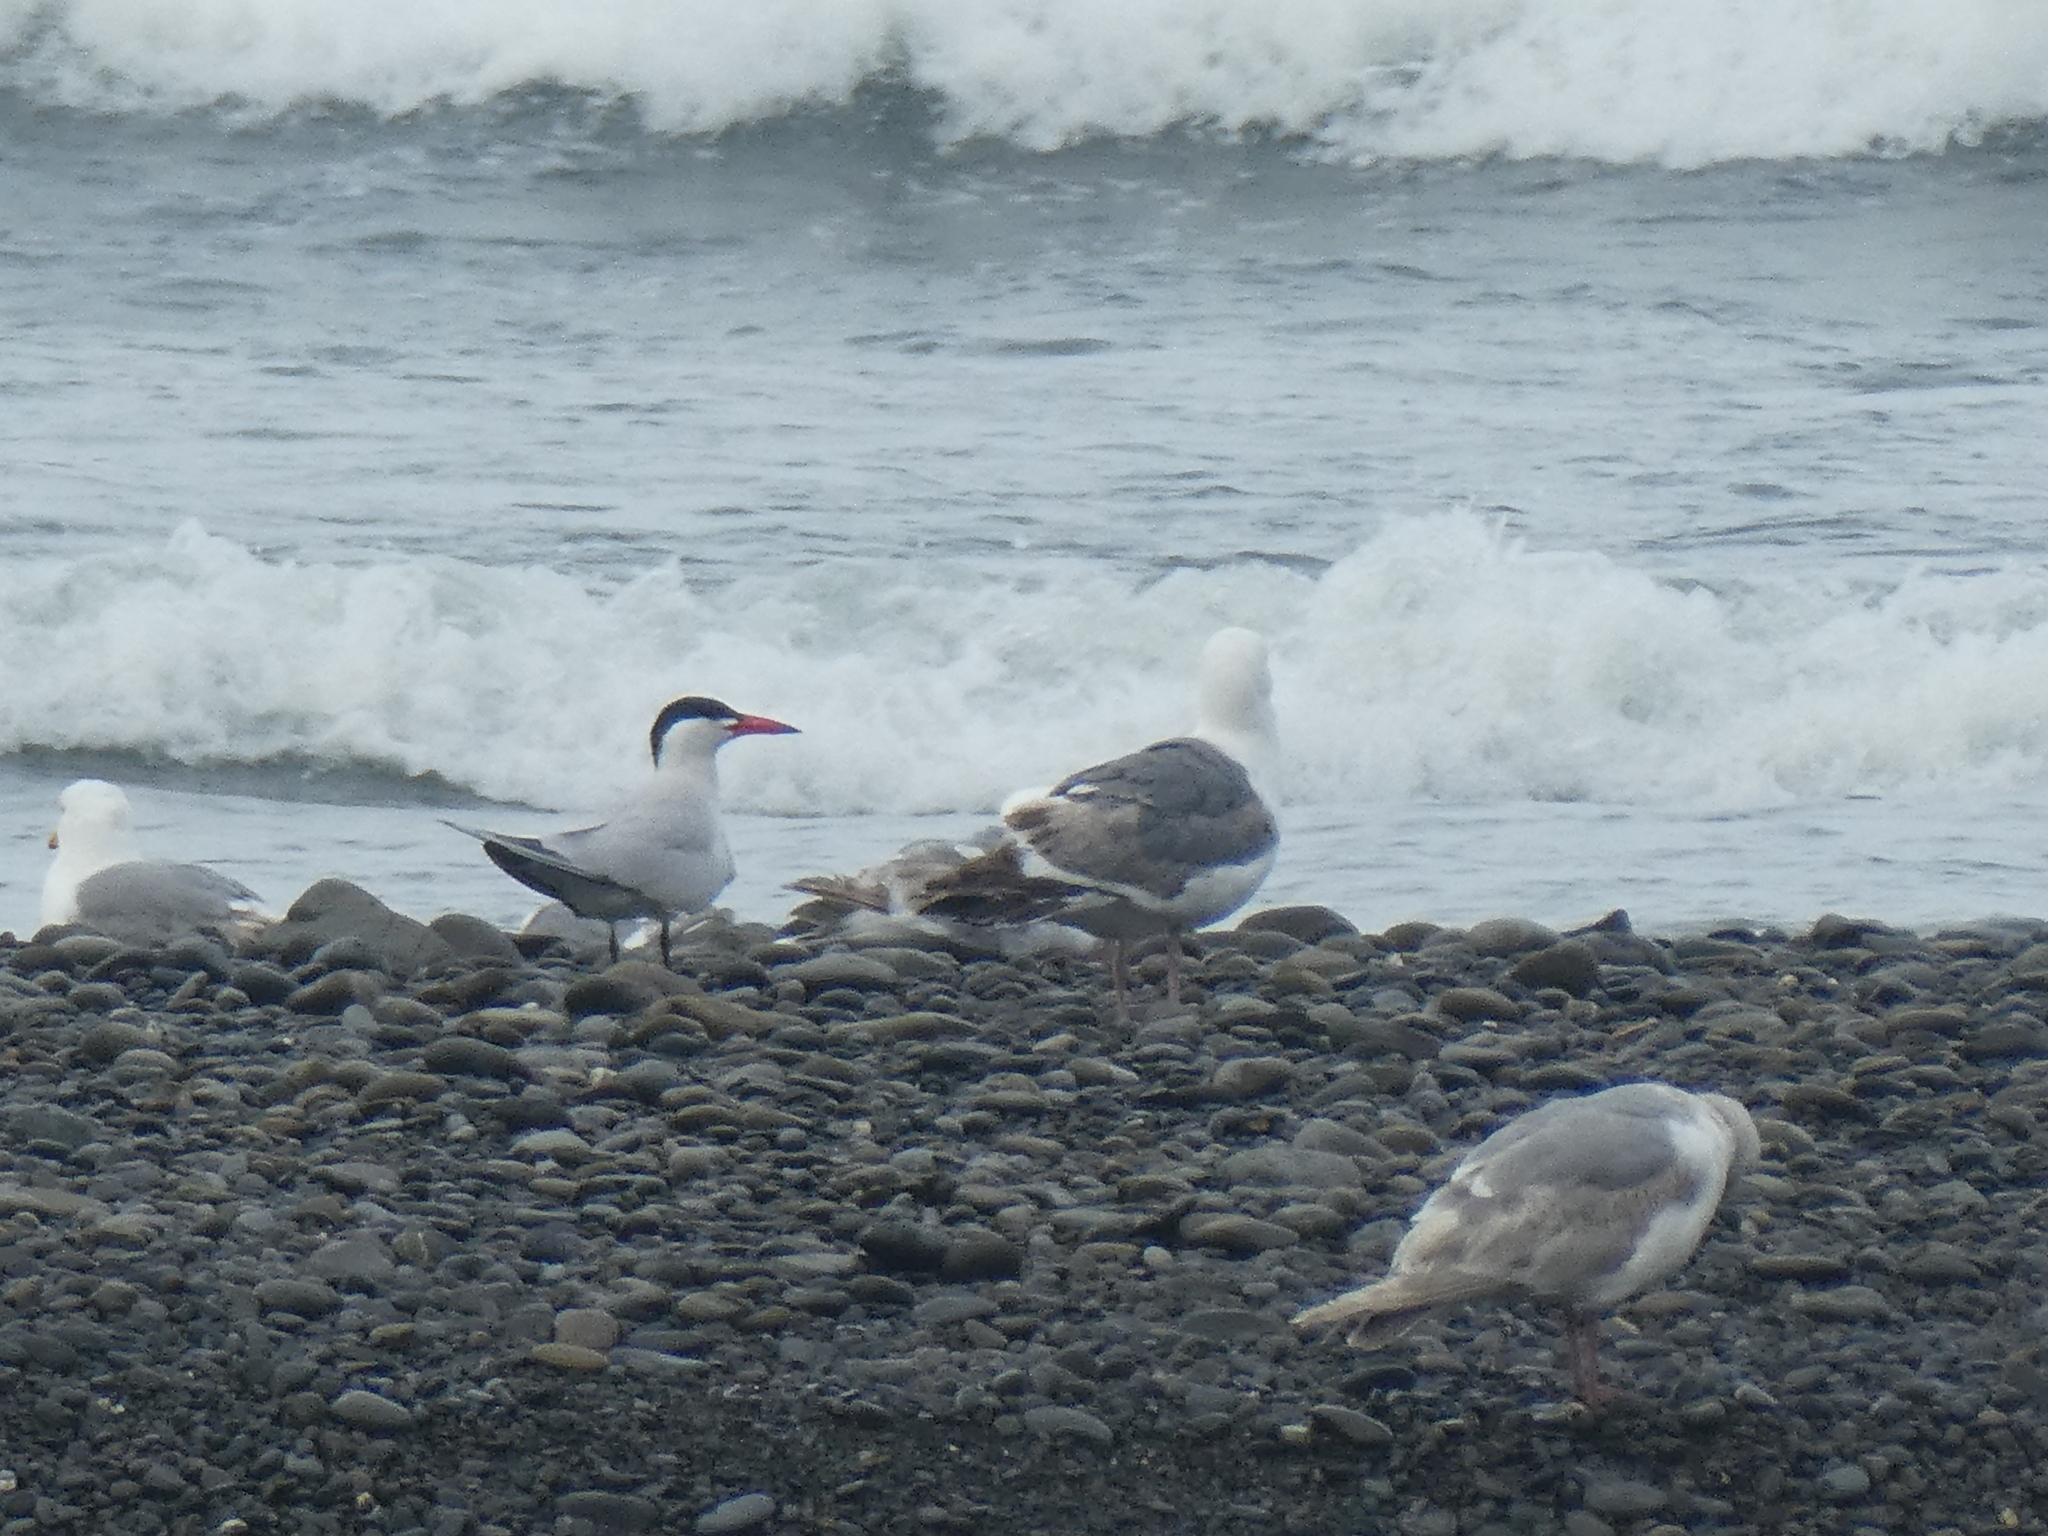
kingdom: Animalia
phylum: Chordata
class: Aves
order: Charadriiformes
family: Laridae
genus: Hydroprogne
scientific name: Hydroprogne caspia
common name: Caspian tern
